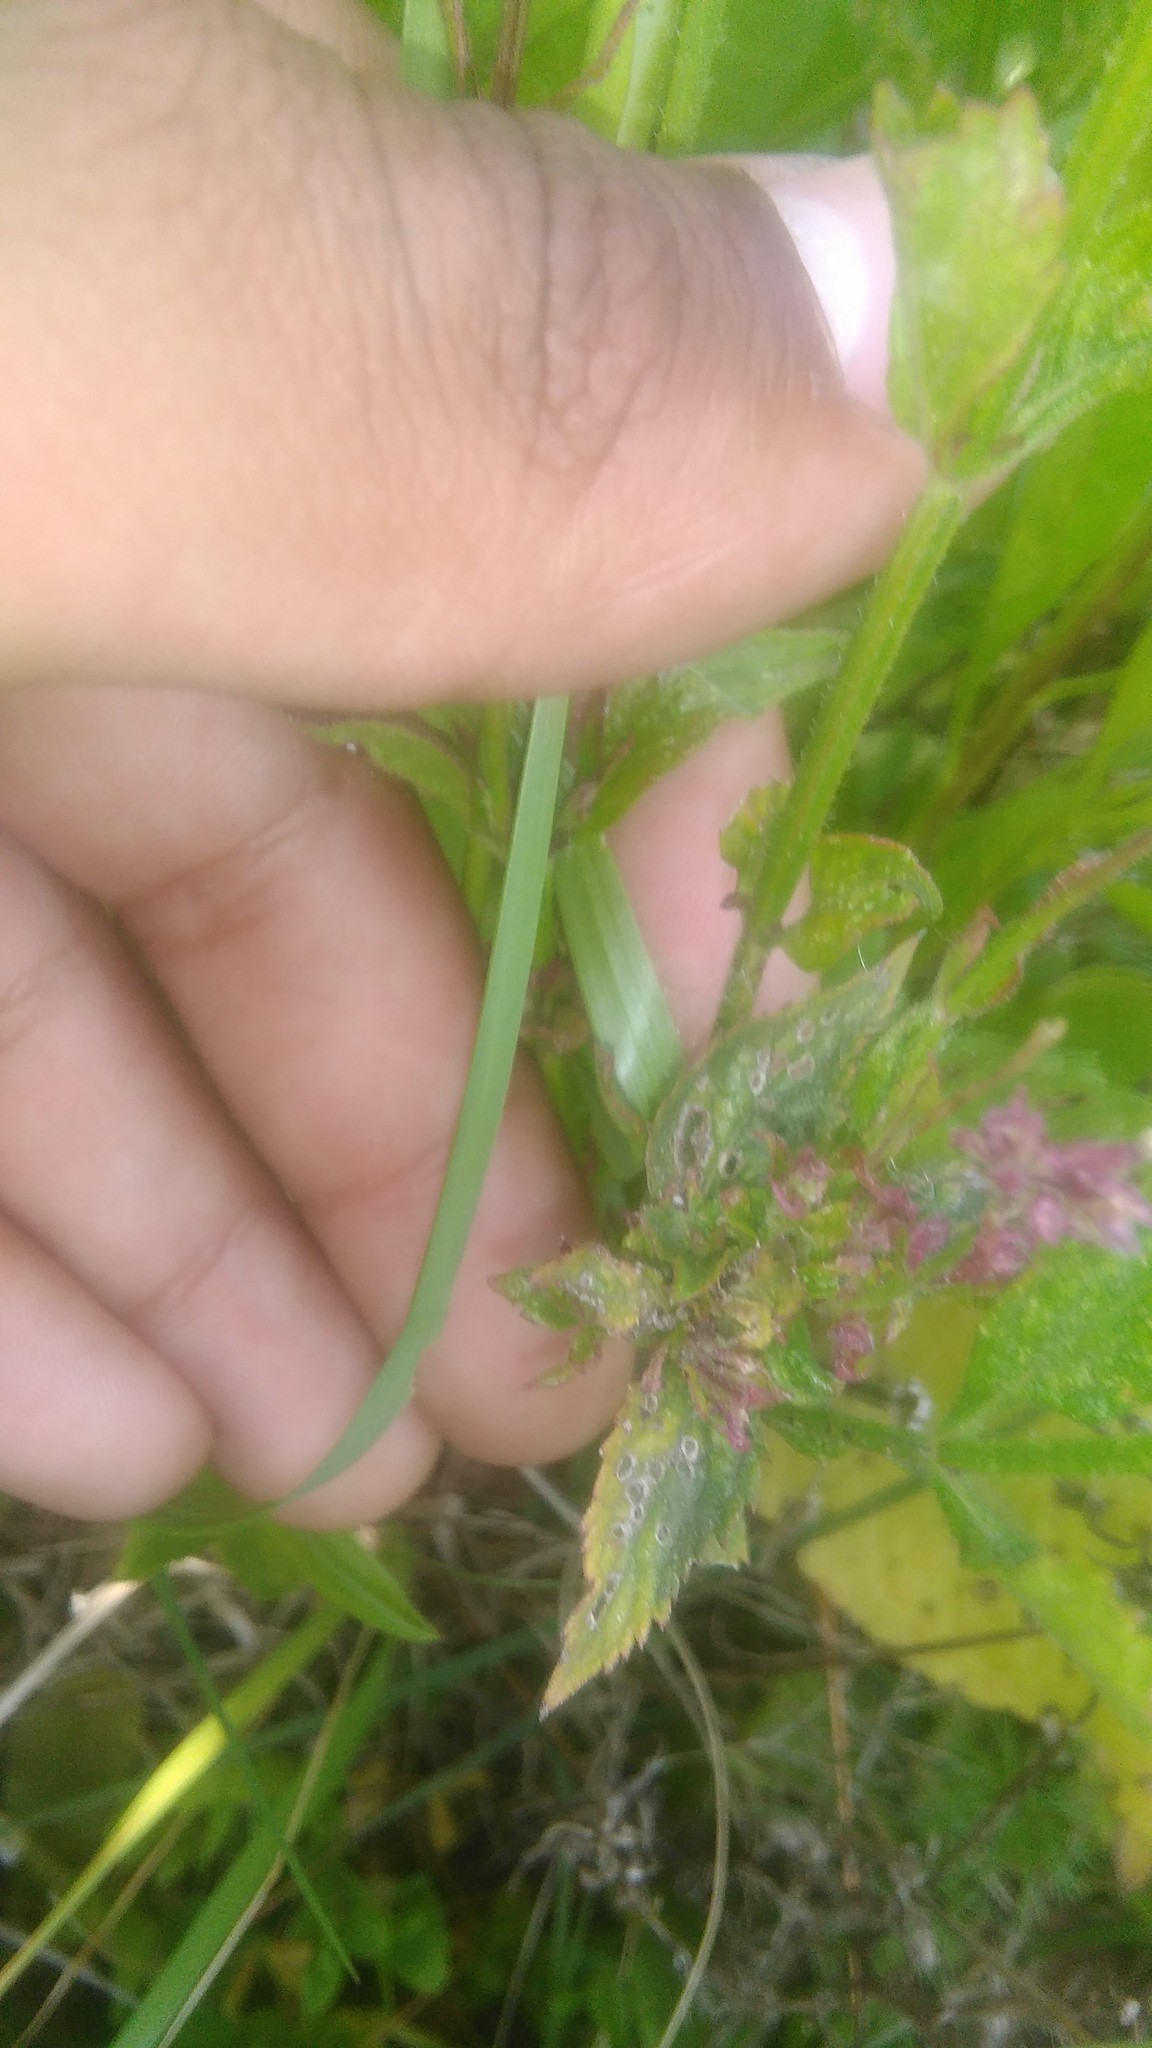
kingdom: Plantae
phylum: Tracheophyta
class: Magnoliopsida
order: Lamiales
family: Verbenaceae
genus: Verbena
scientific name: Verbena litoralis
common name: Seashore vervain
